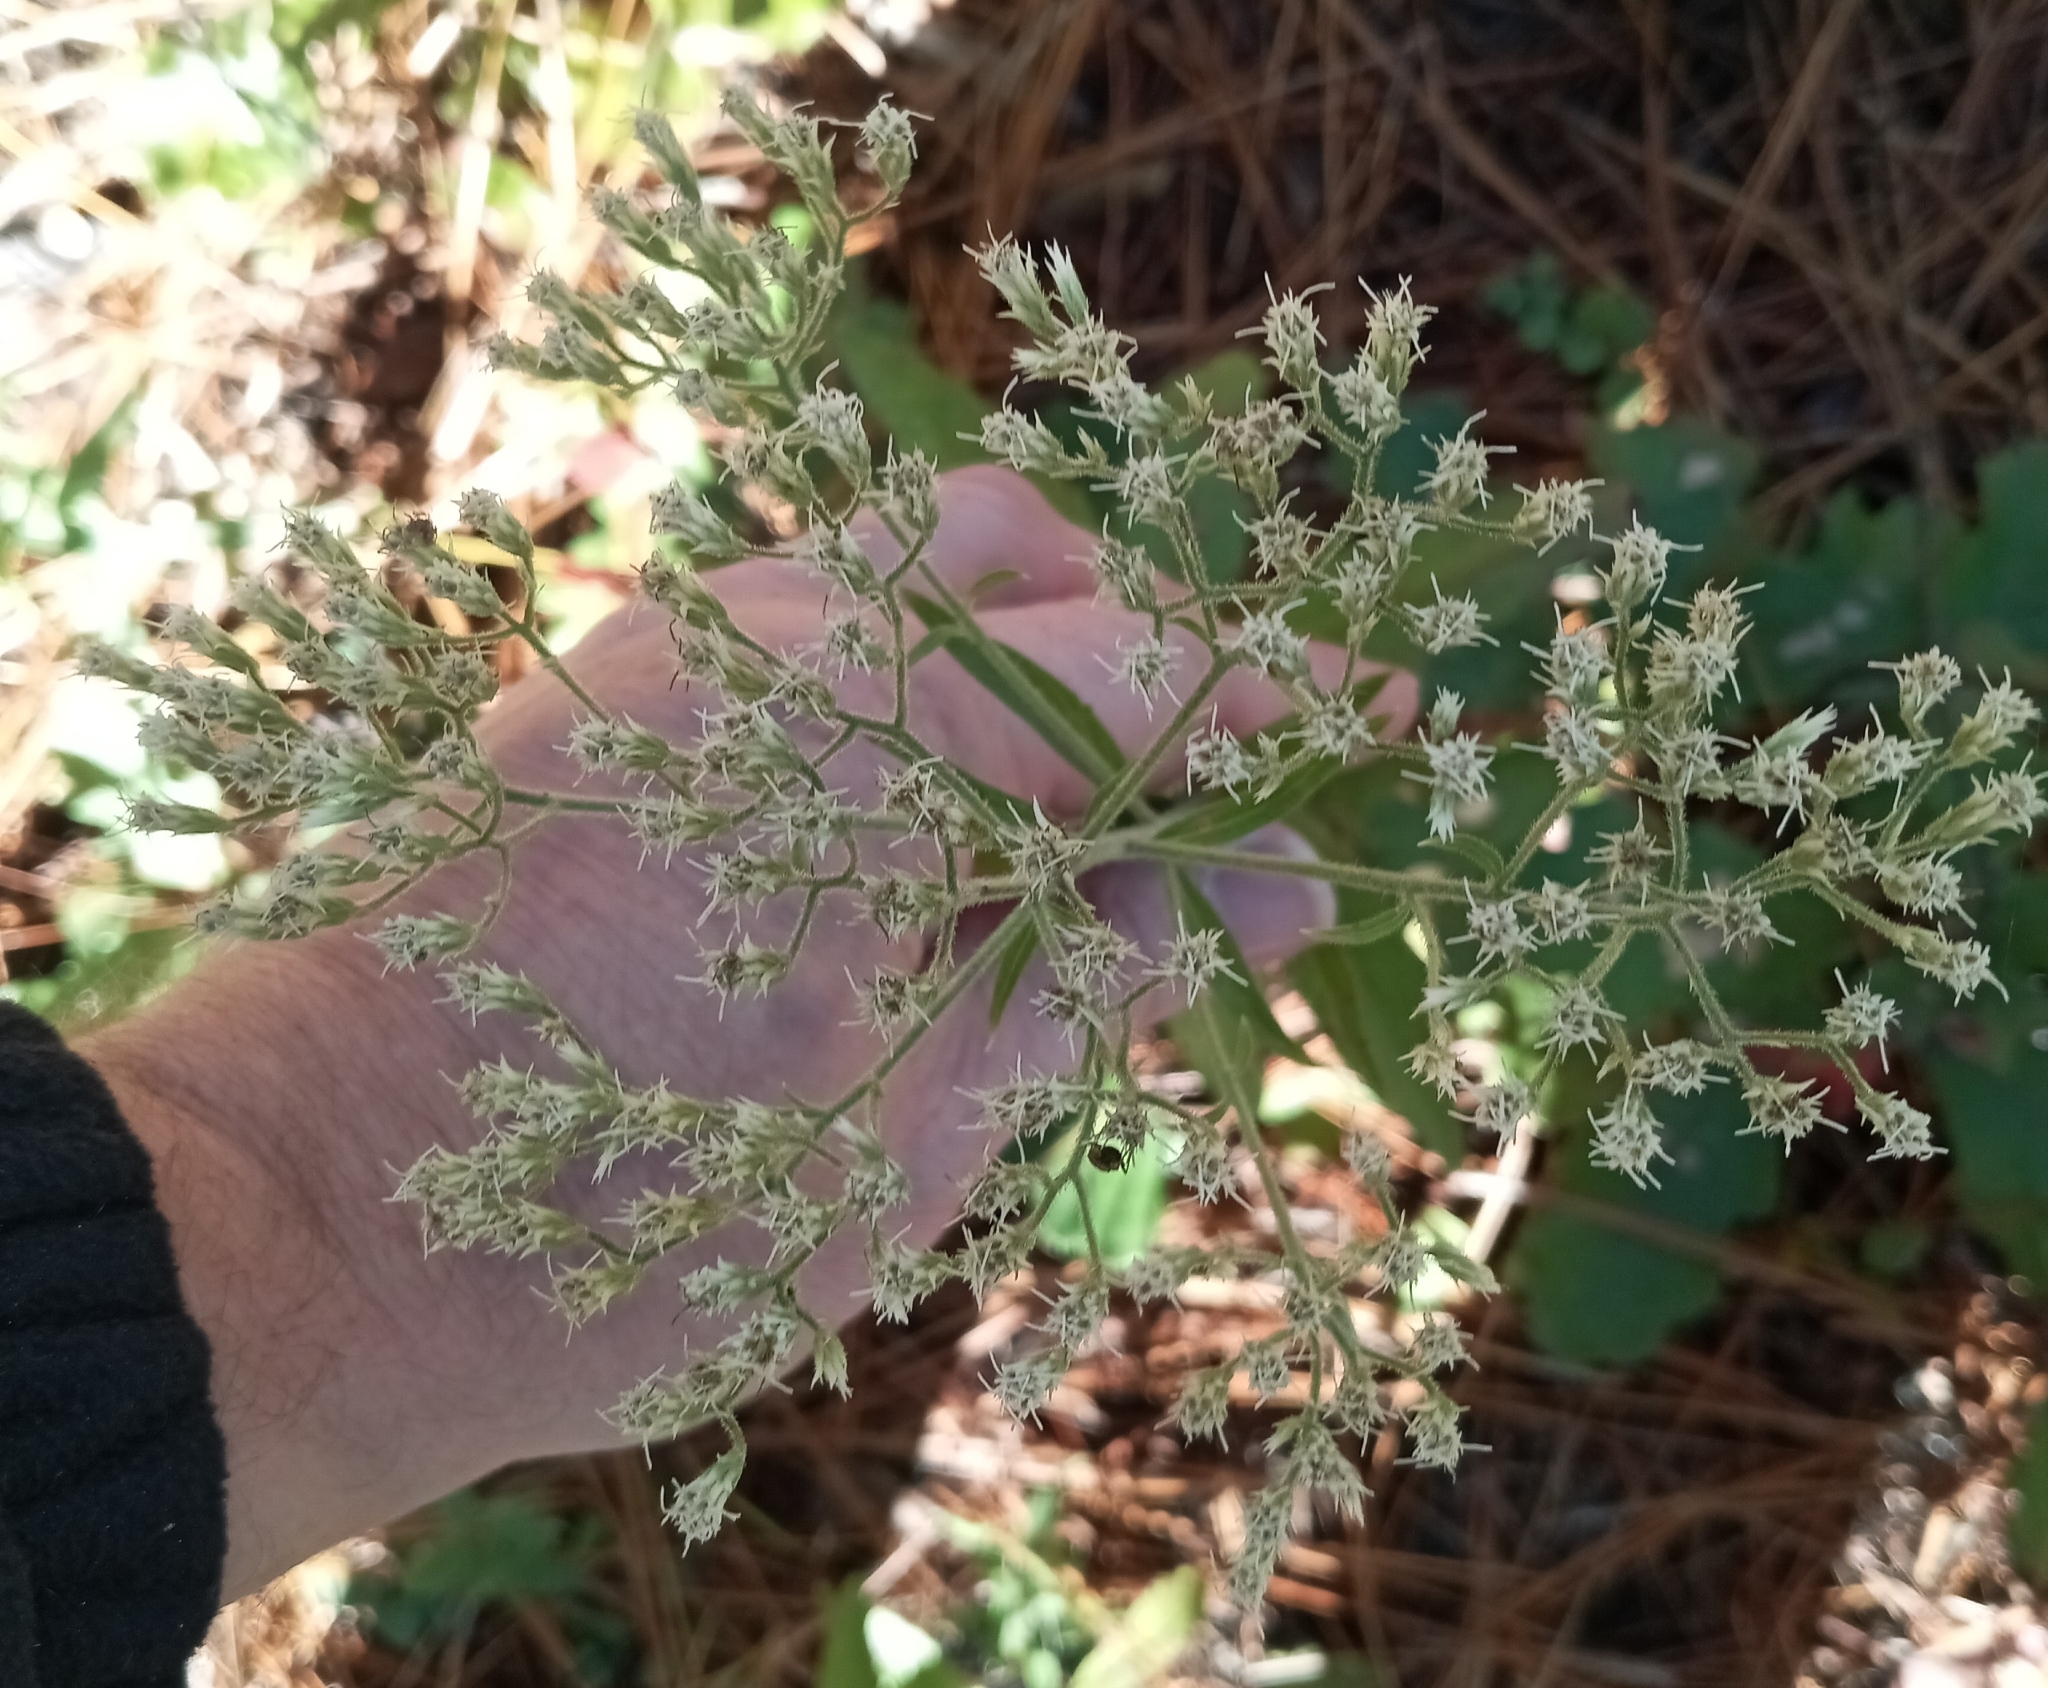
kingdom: Plantae
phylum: Tracheophyta
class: Magnoliopsida
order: Asterales
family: Asteraceae
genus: Eupatorium
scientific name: Eupatorium album
